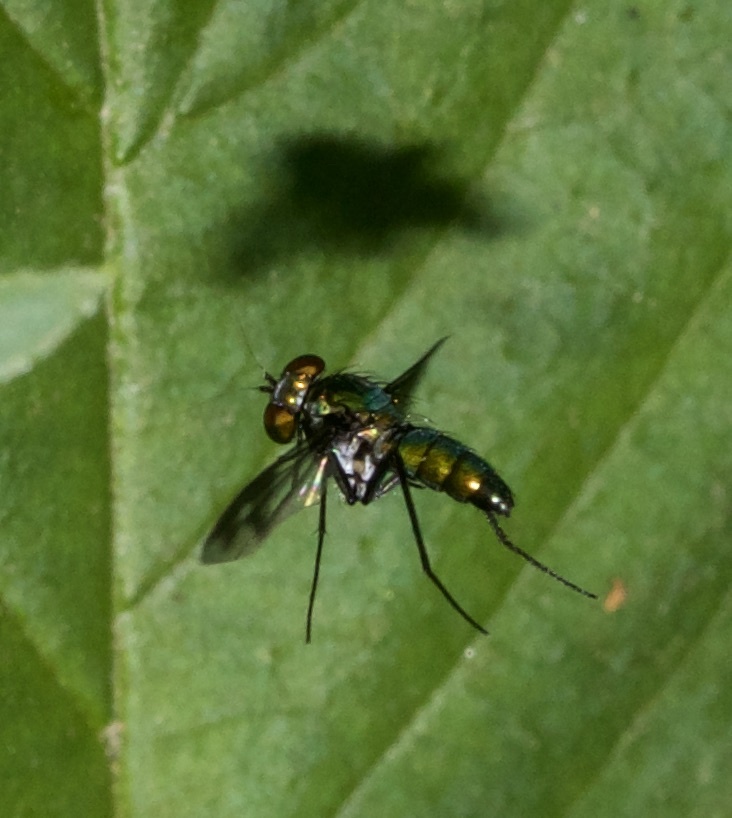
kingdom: Animalia
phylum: Arthropoda
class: Insecta
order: Diptera
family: Dolichopodidae
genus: Condylostylus
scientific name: Condylostylus patibulatus
